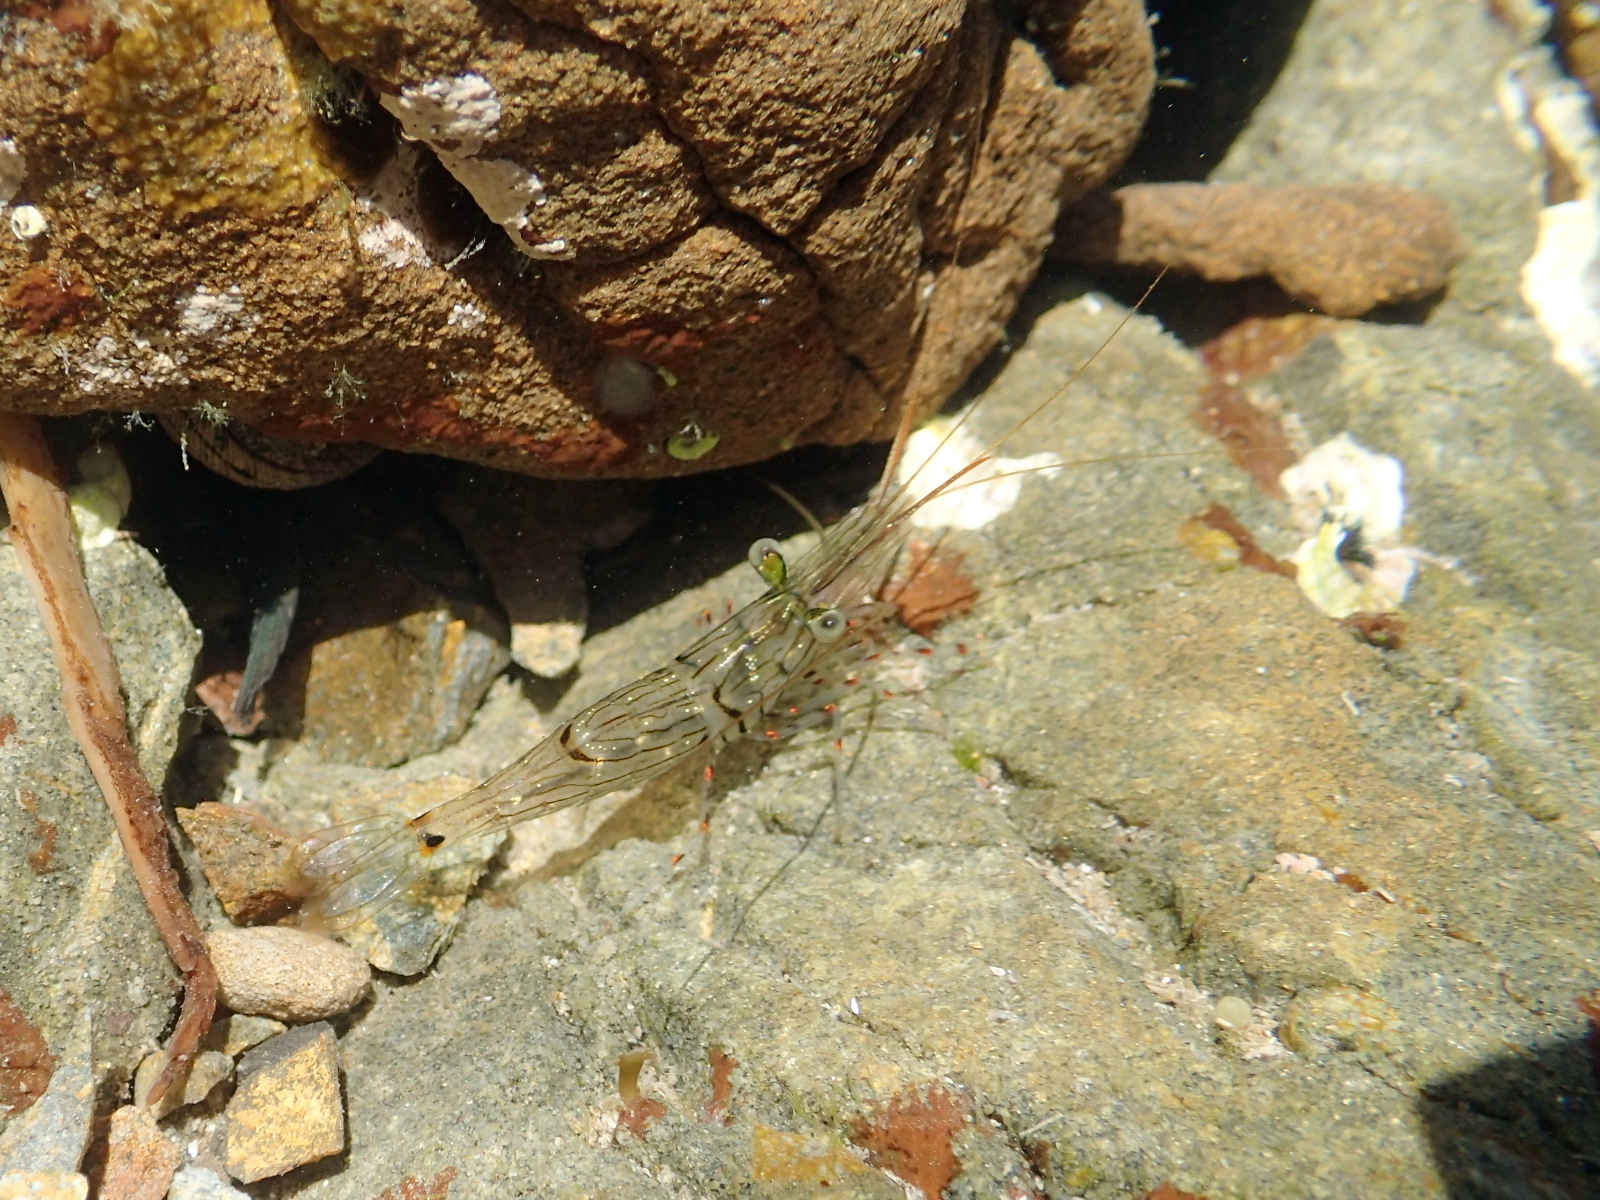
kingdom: Animalia
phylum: Arthropoda
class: Malacostraca
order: Decapoda
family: Palaemonidae
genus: Palaemon
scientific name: Palaemon affinis
